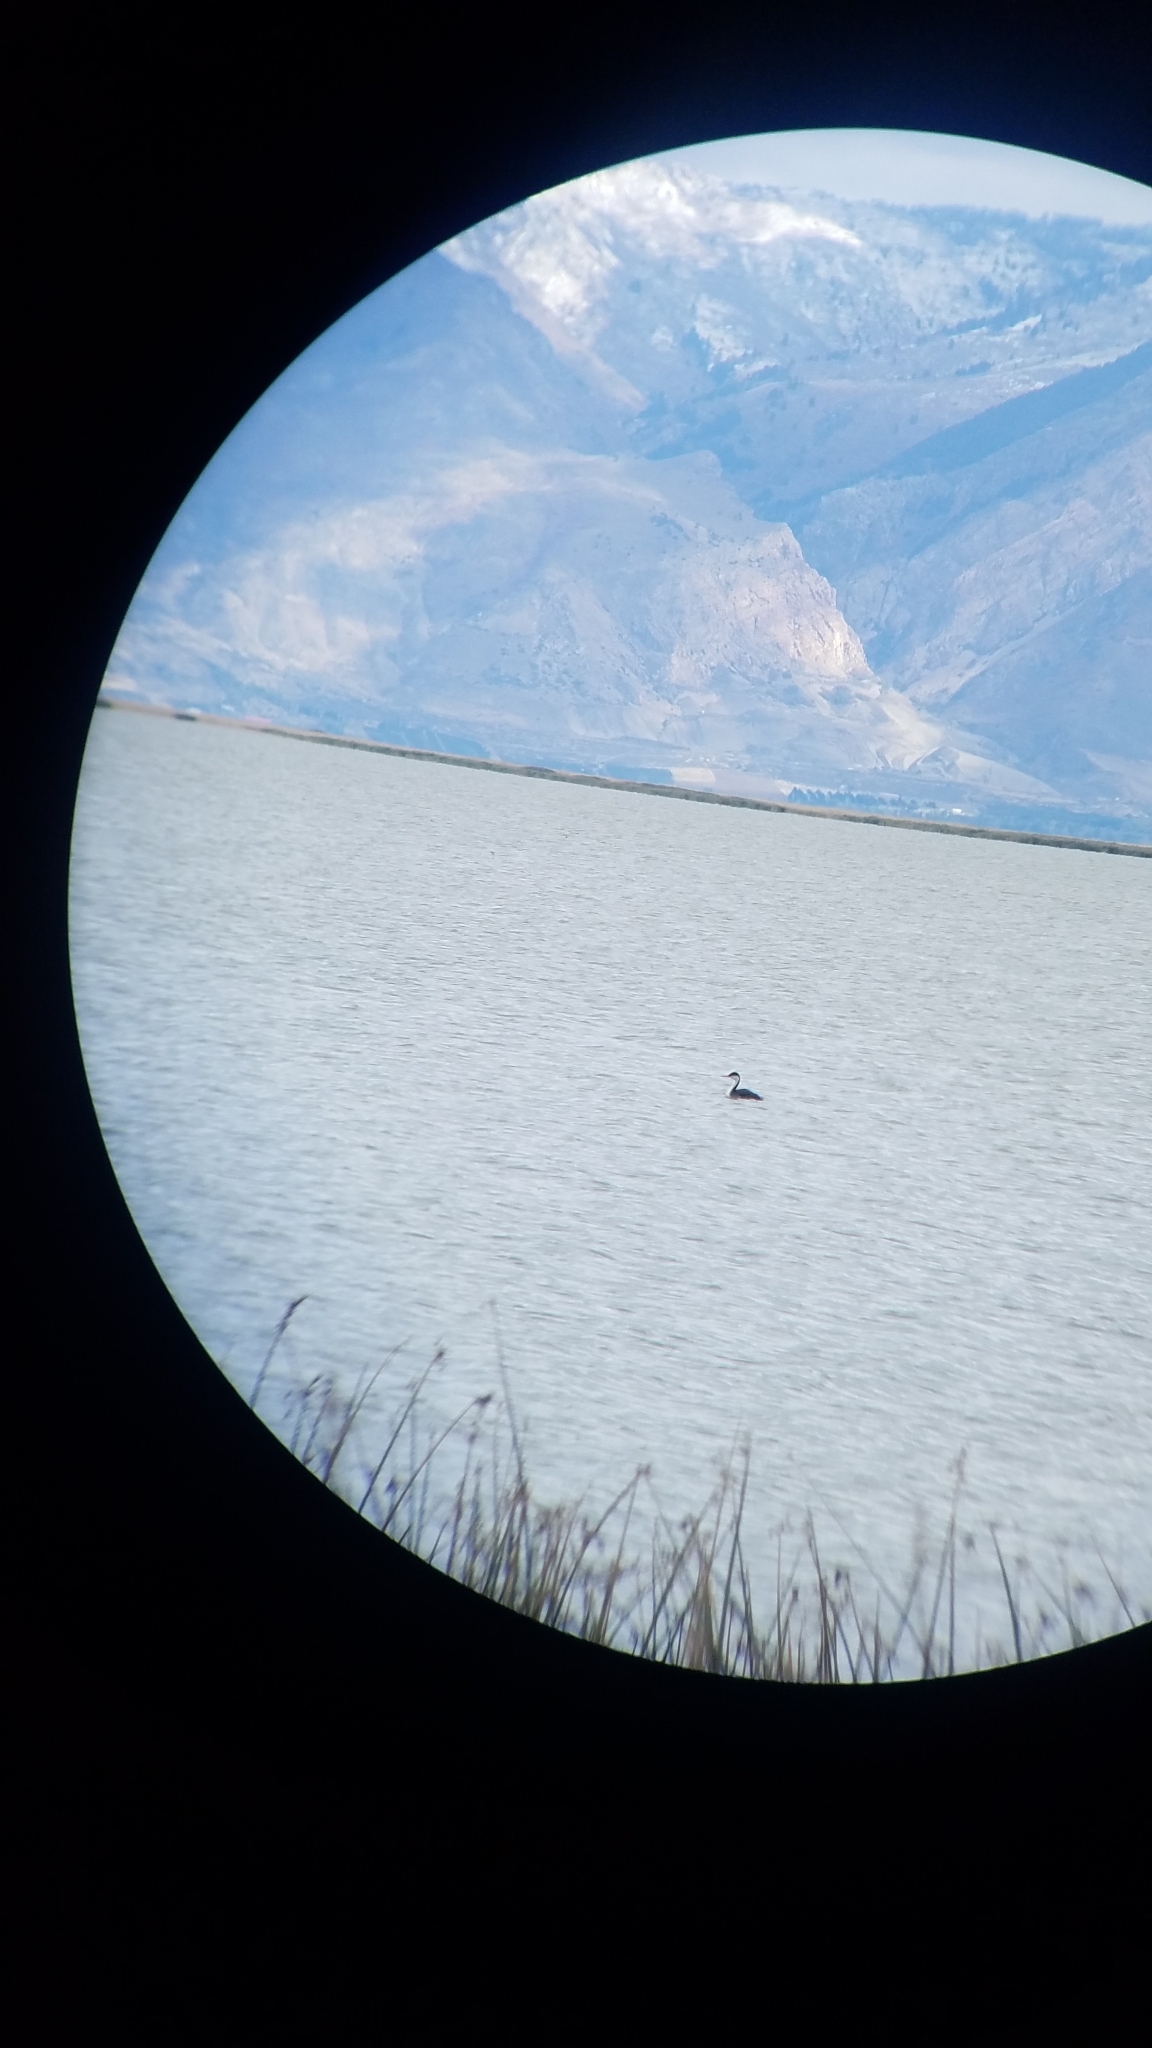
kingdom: Animalia
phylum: Chordata
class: Aves
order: Podicipediformes
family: Podicipedidae
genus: Aechmophorus
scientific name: Aechmophorus occidentalis
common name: Western grebe
